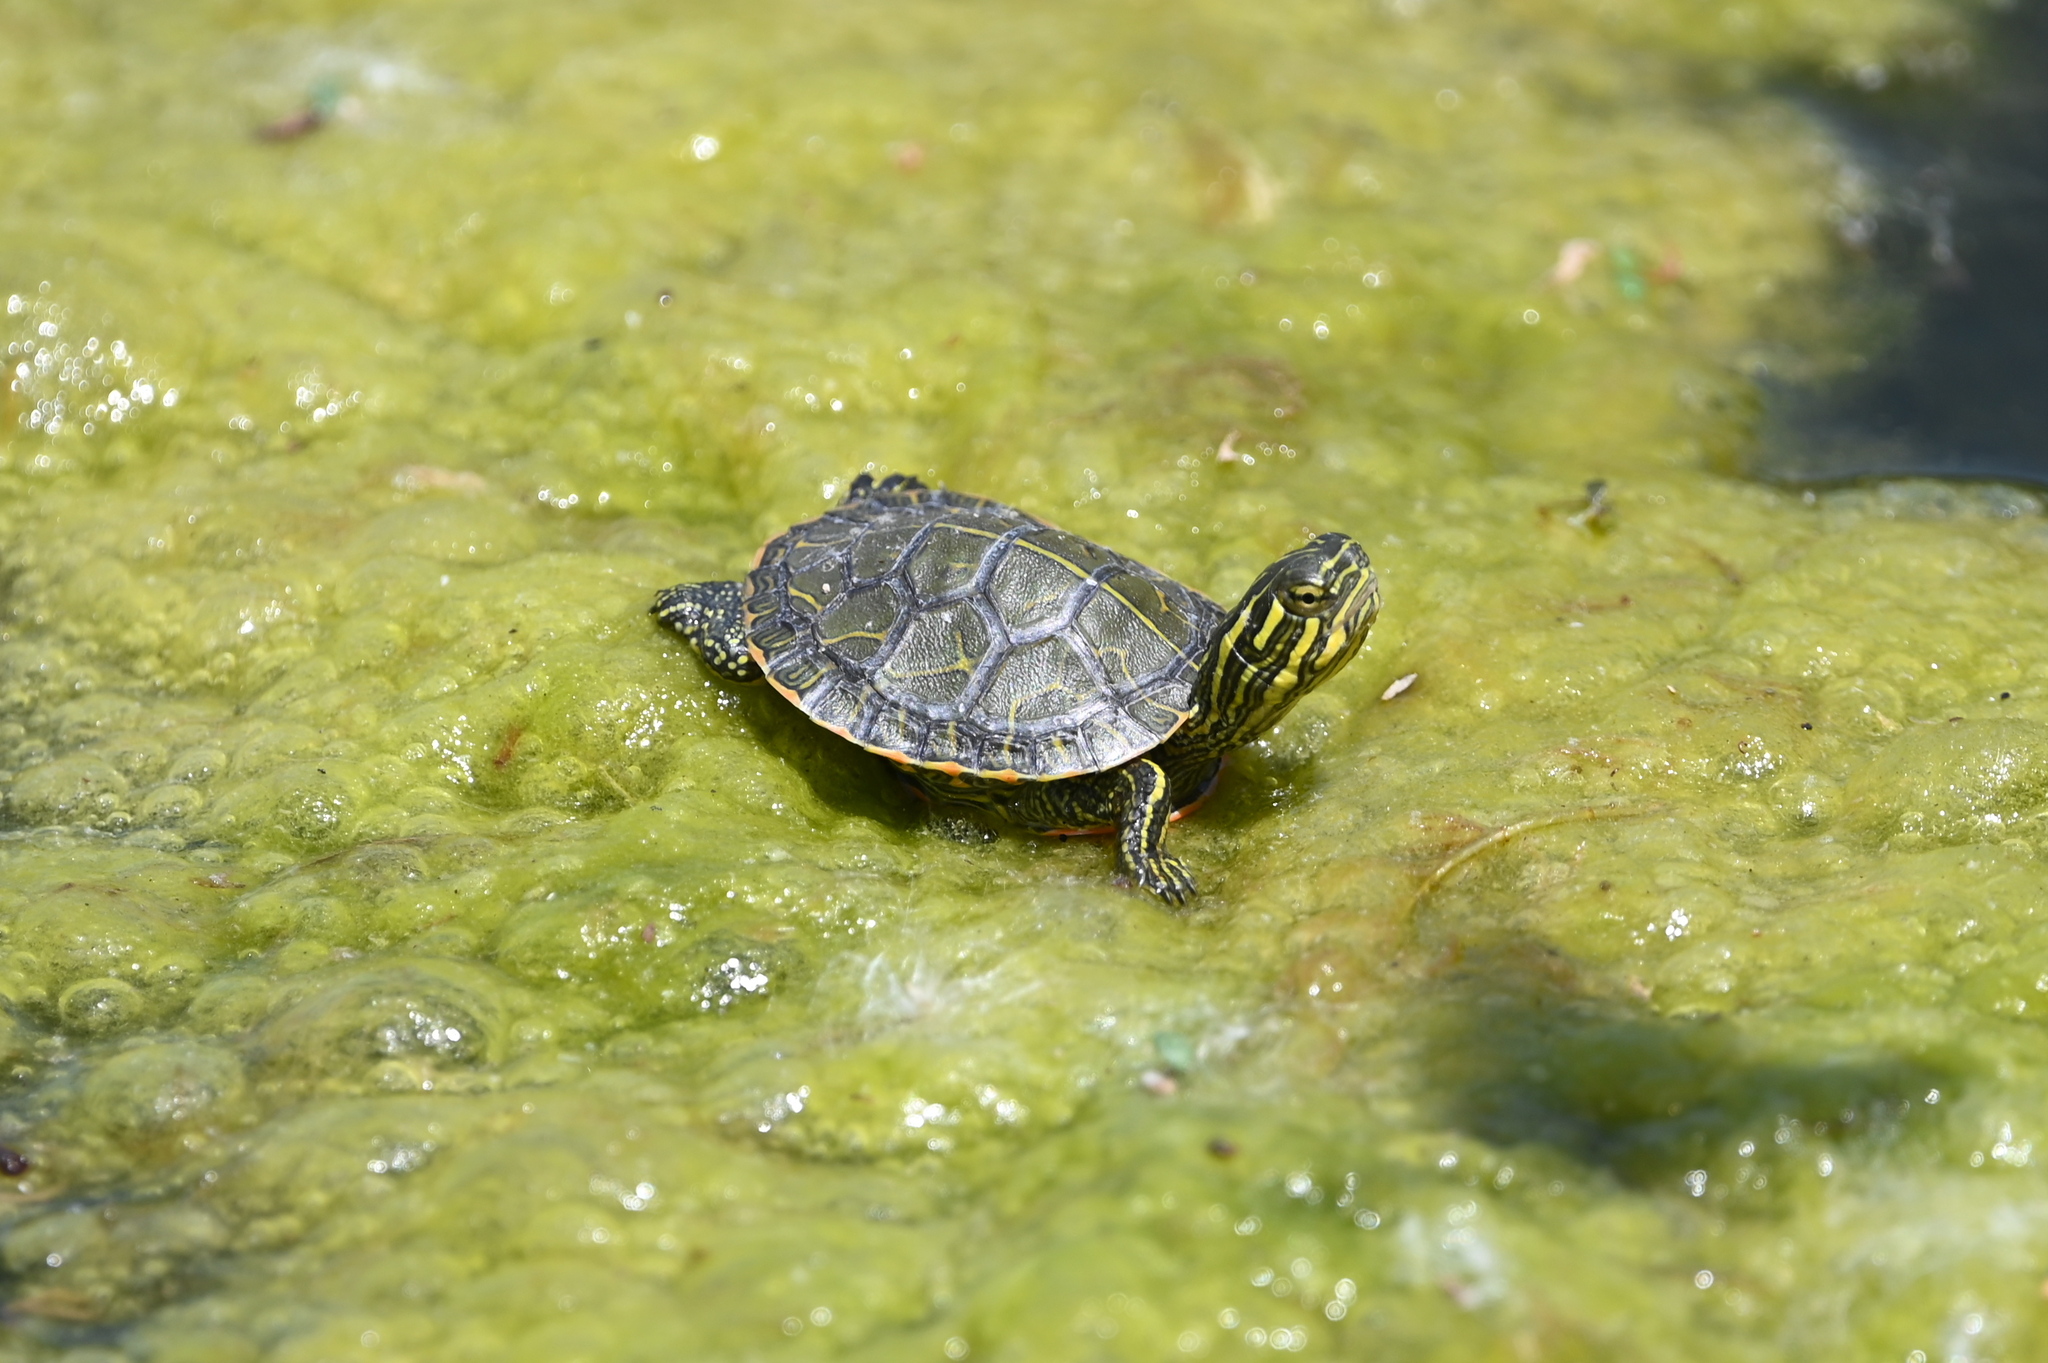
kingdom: Animalia
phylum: Chordata
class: Testudines
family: Emydidae
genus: Chrysemys
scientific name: Chrysemys picta
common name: Painted turtle
